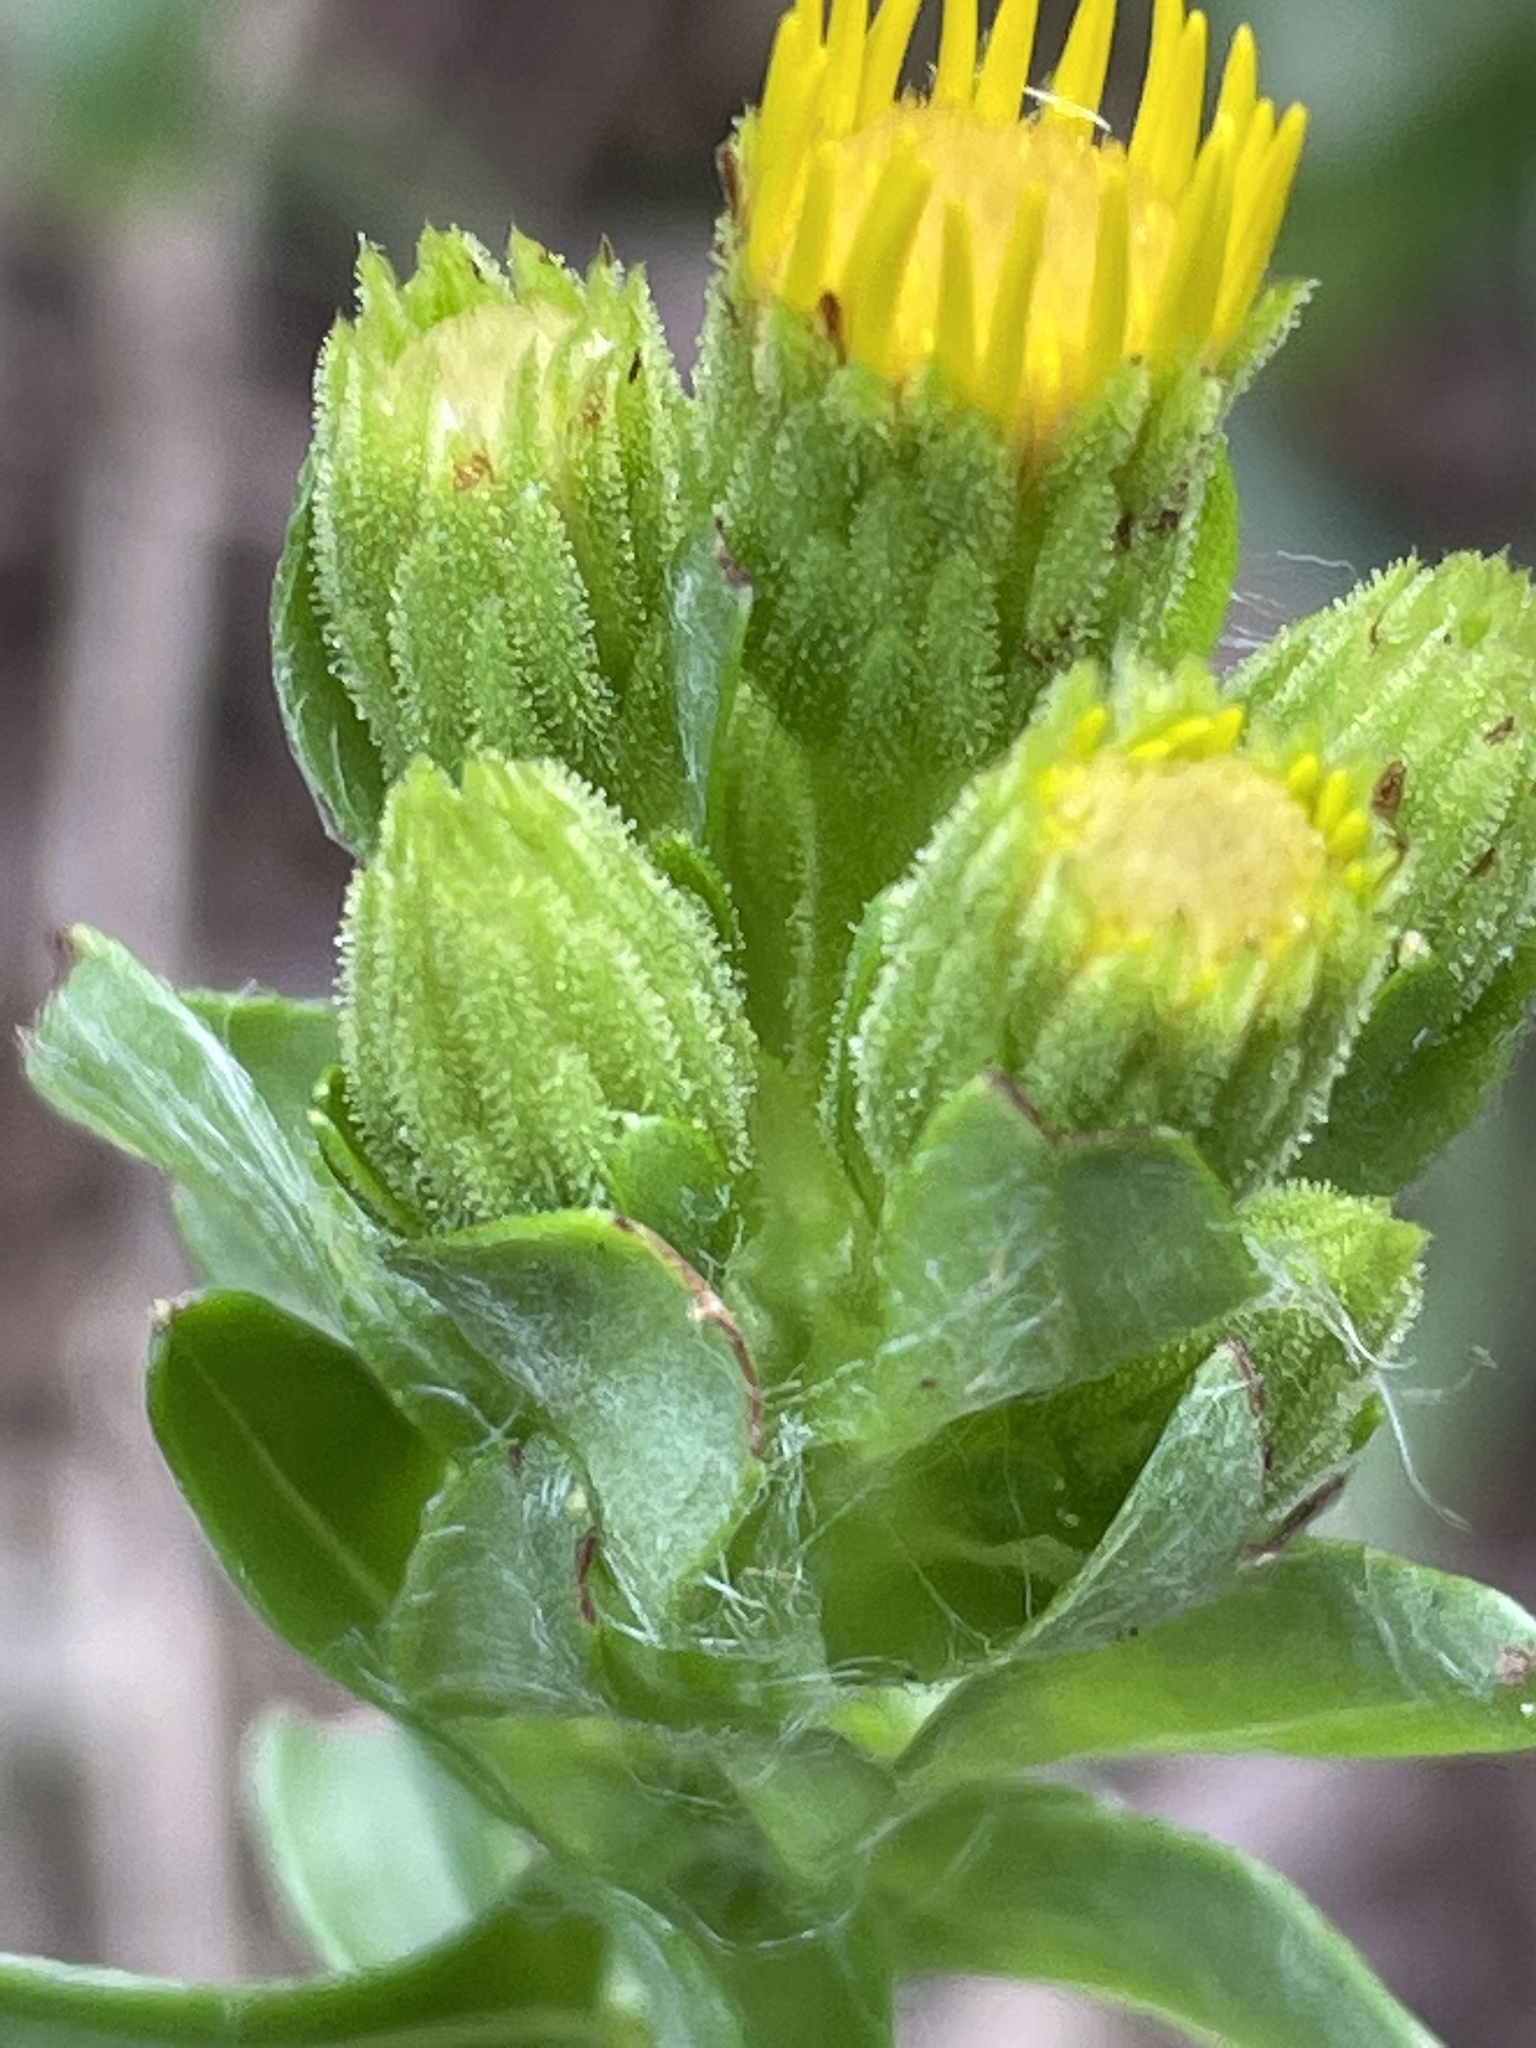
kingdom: Plantae
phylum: Tracheophyta
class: Magnoliopsida
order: Asterales
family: Asteraceae
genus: Chrysopsis
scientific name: Chrysopsis mariana
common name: Maryland golden-aster
